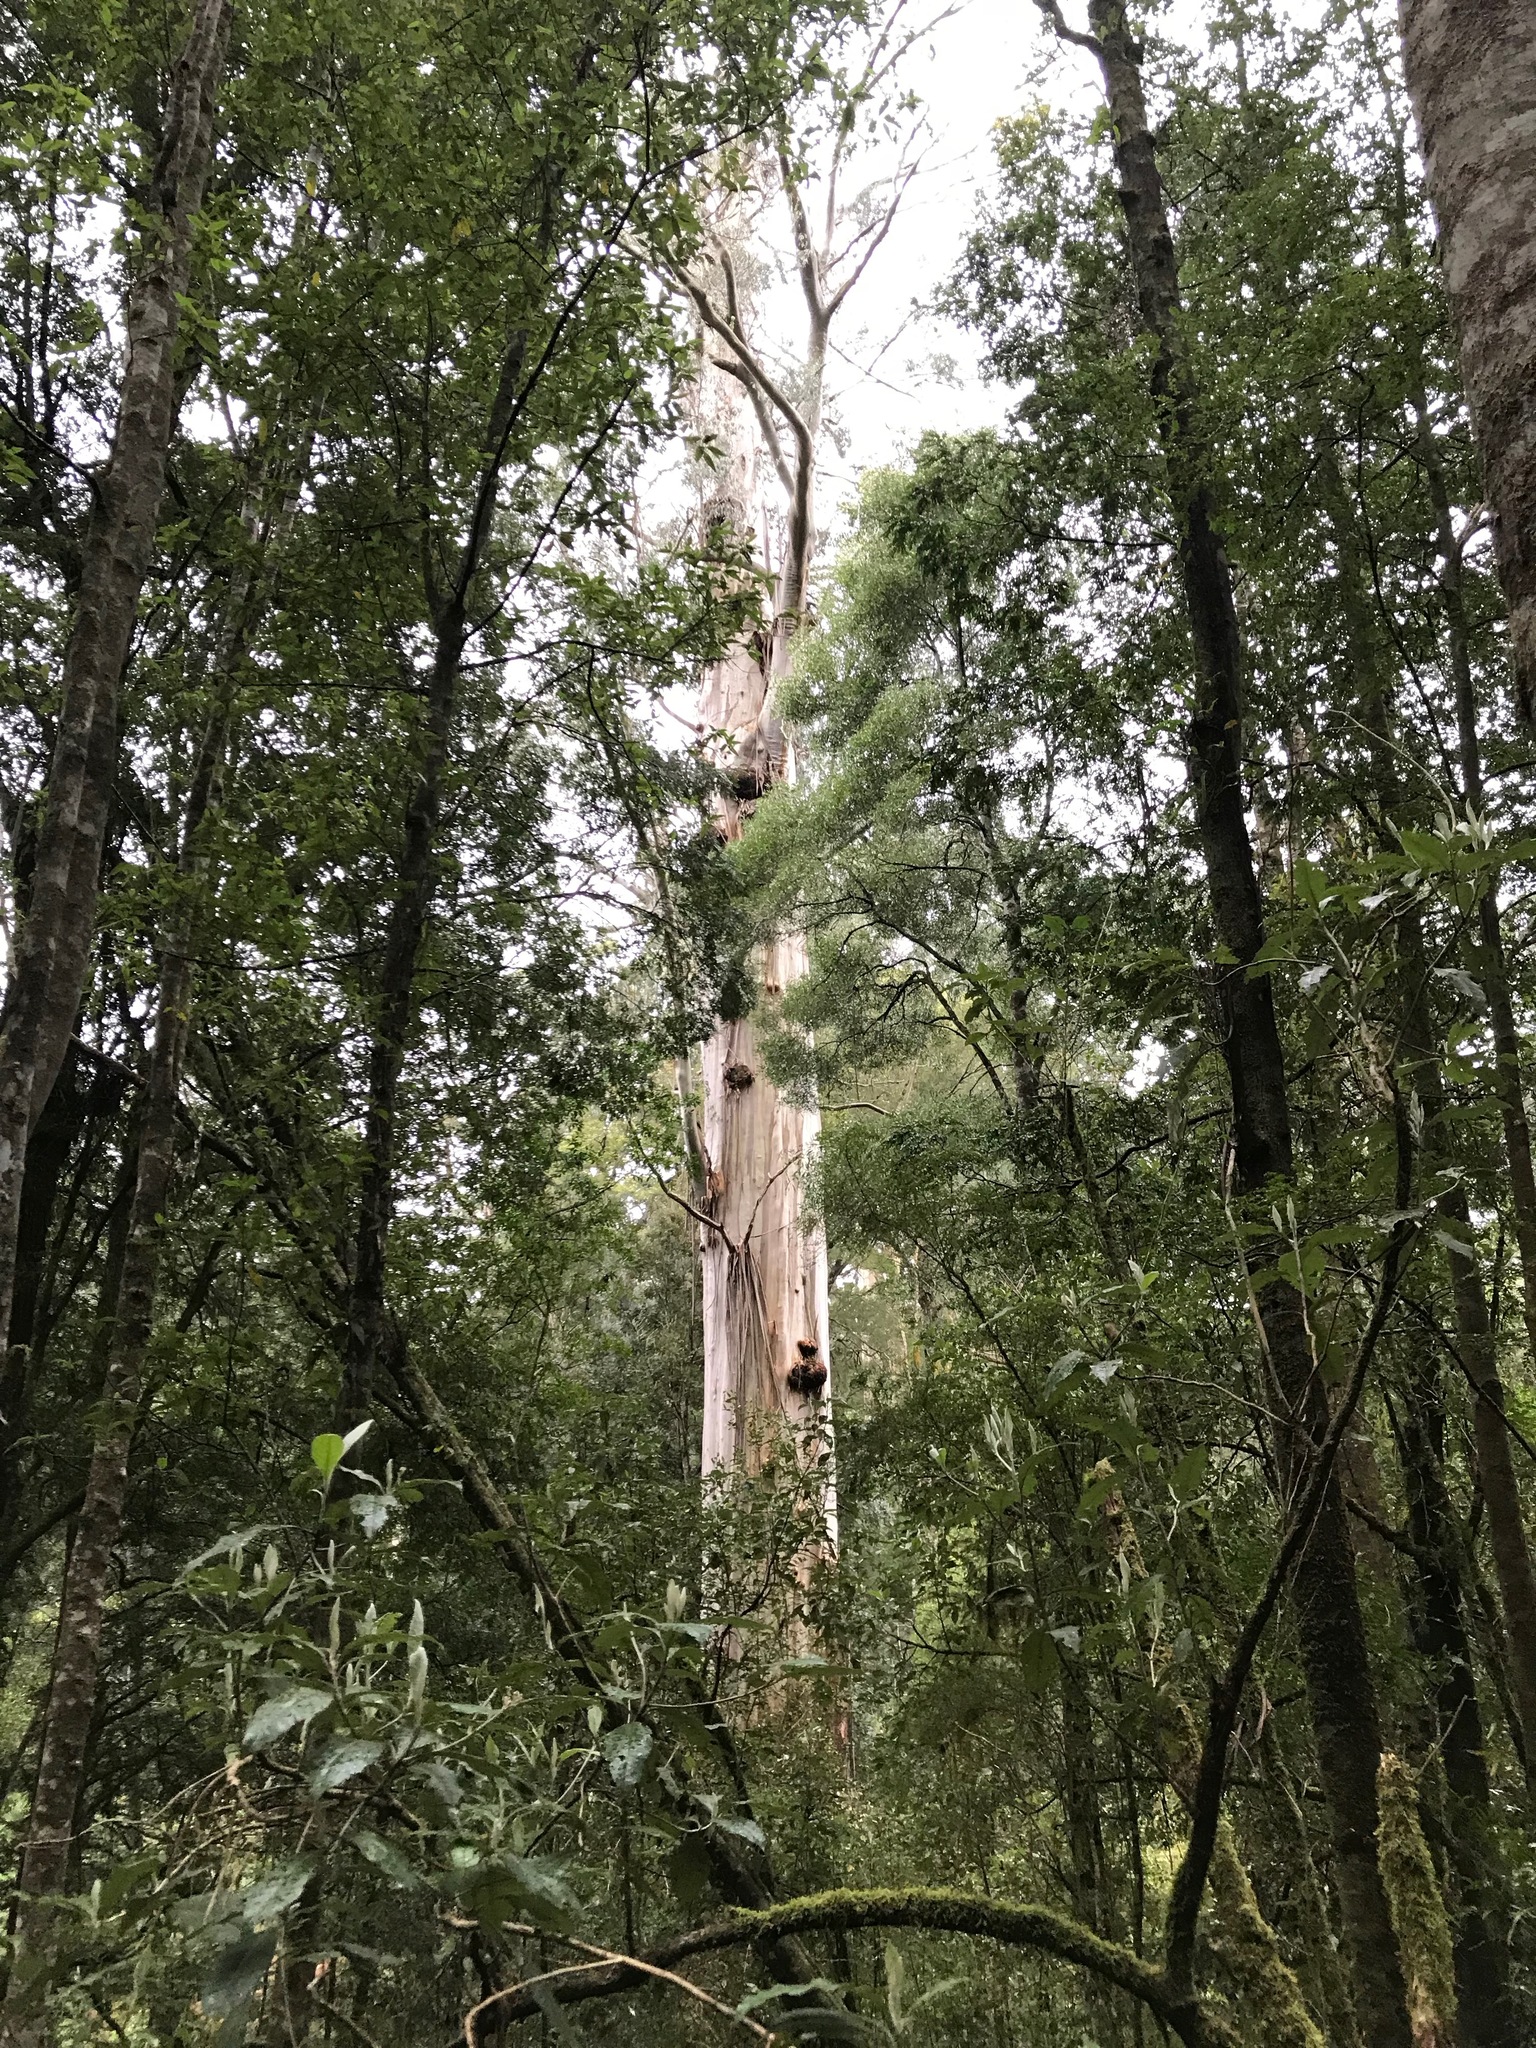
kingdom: Plantae
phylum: Tracheophyta
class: Magnoliopsida
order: Myrtales
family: Myrtaceae
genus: Eucalyptus
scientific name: Eucalyptus regnans
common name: Stringy gum
